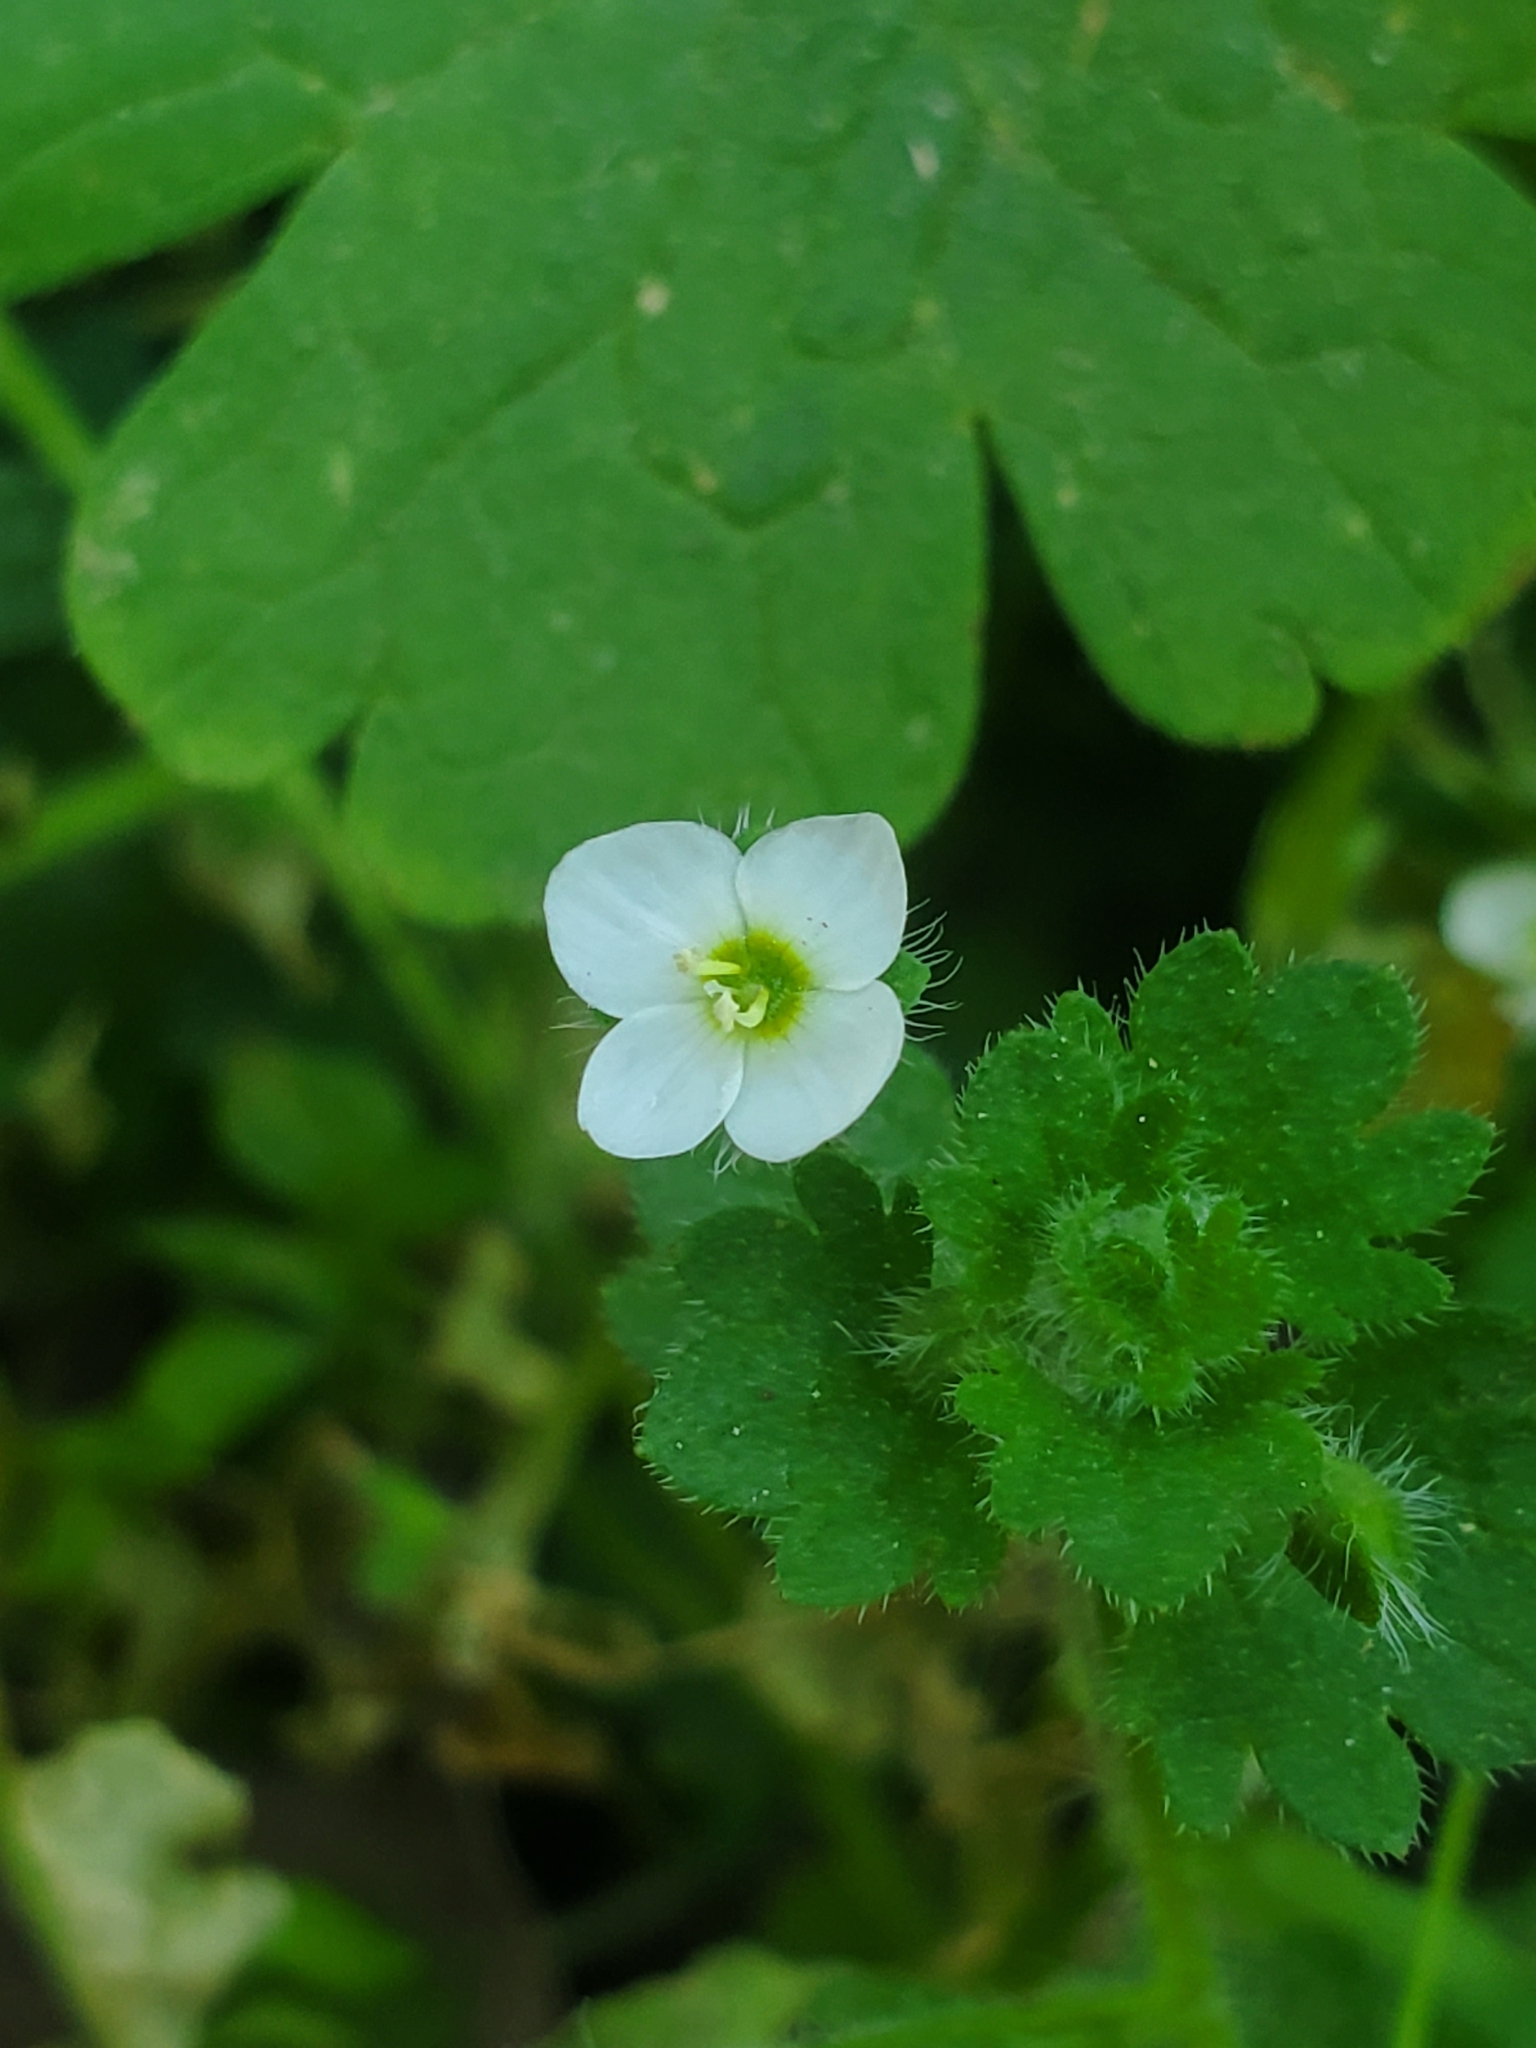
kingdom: Plantae
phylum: Tracheophyta
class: Magnoliopsida
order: Lamiales
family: Plantaginaceae
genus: Veronica
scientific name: Veronica cymbalaria
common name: Pale speedwell
